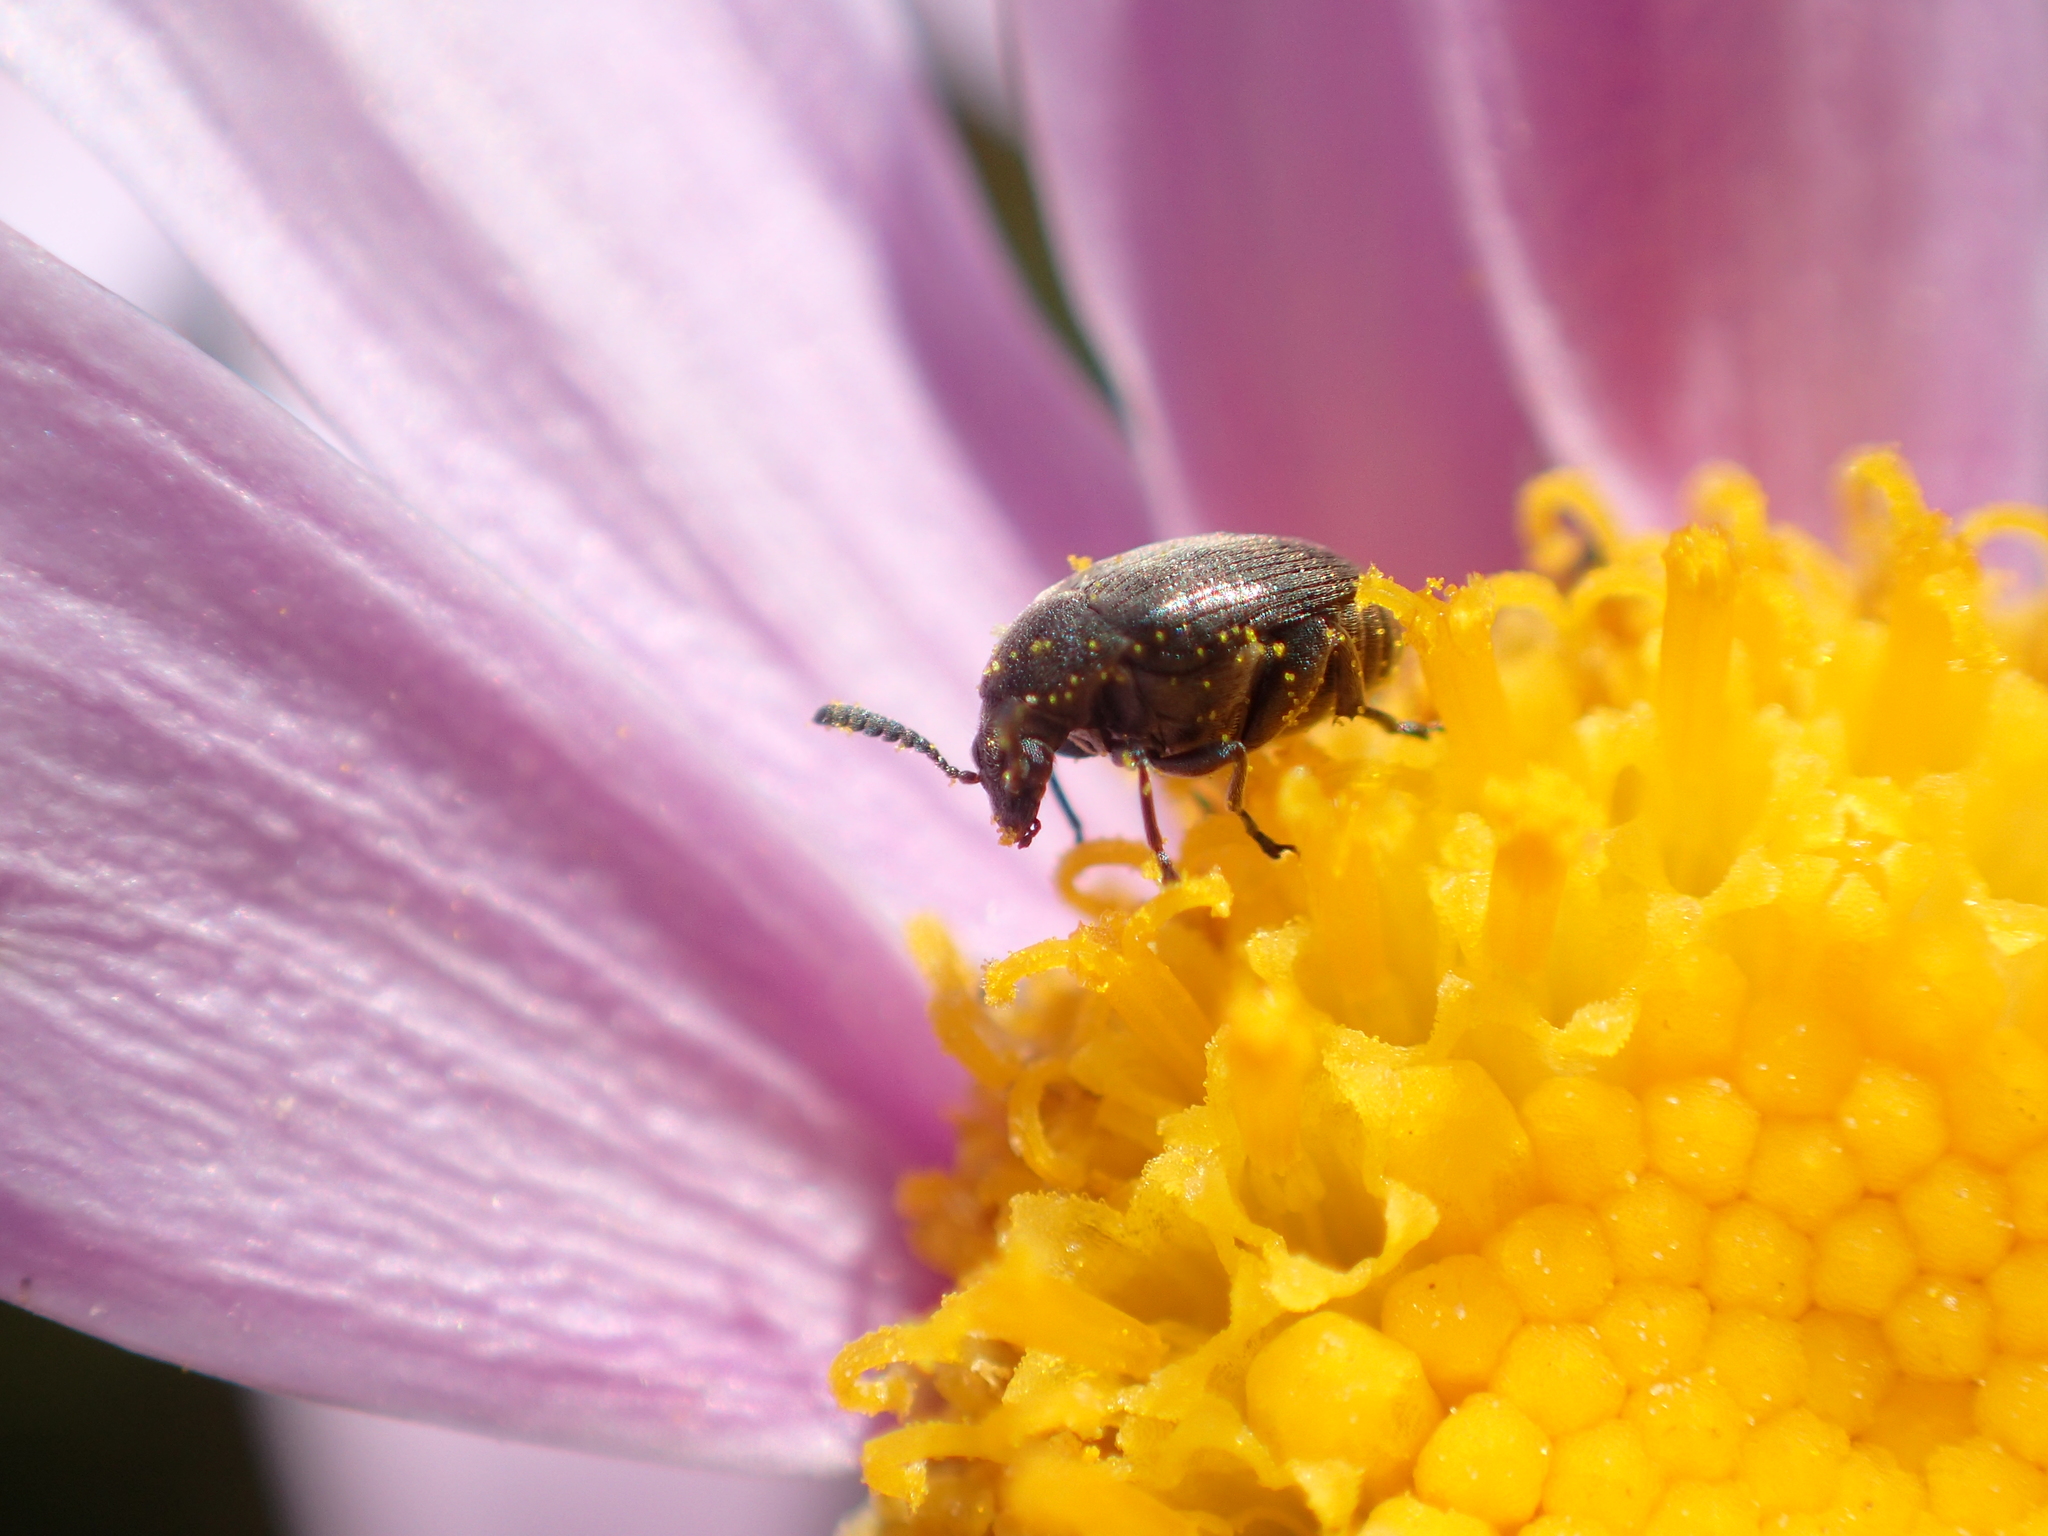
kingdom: Animalia
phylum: Arthropoda
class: Insecta
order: Coleoptera
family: Chrysomelidae
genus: Bruchidius
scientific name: Bruchidius villosus
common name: Scotch broom bruchid
